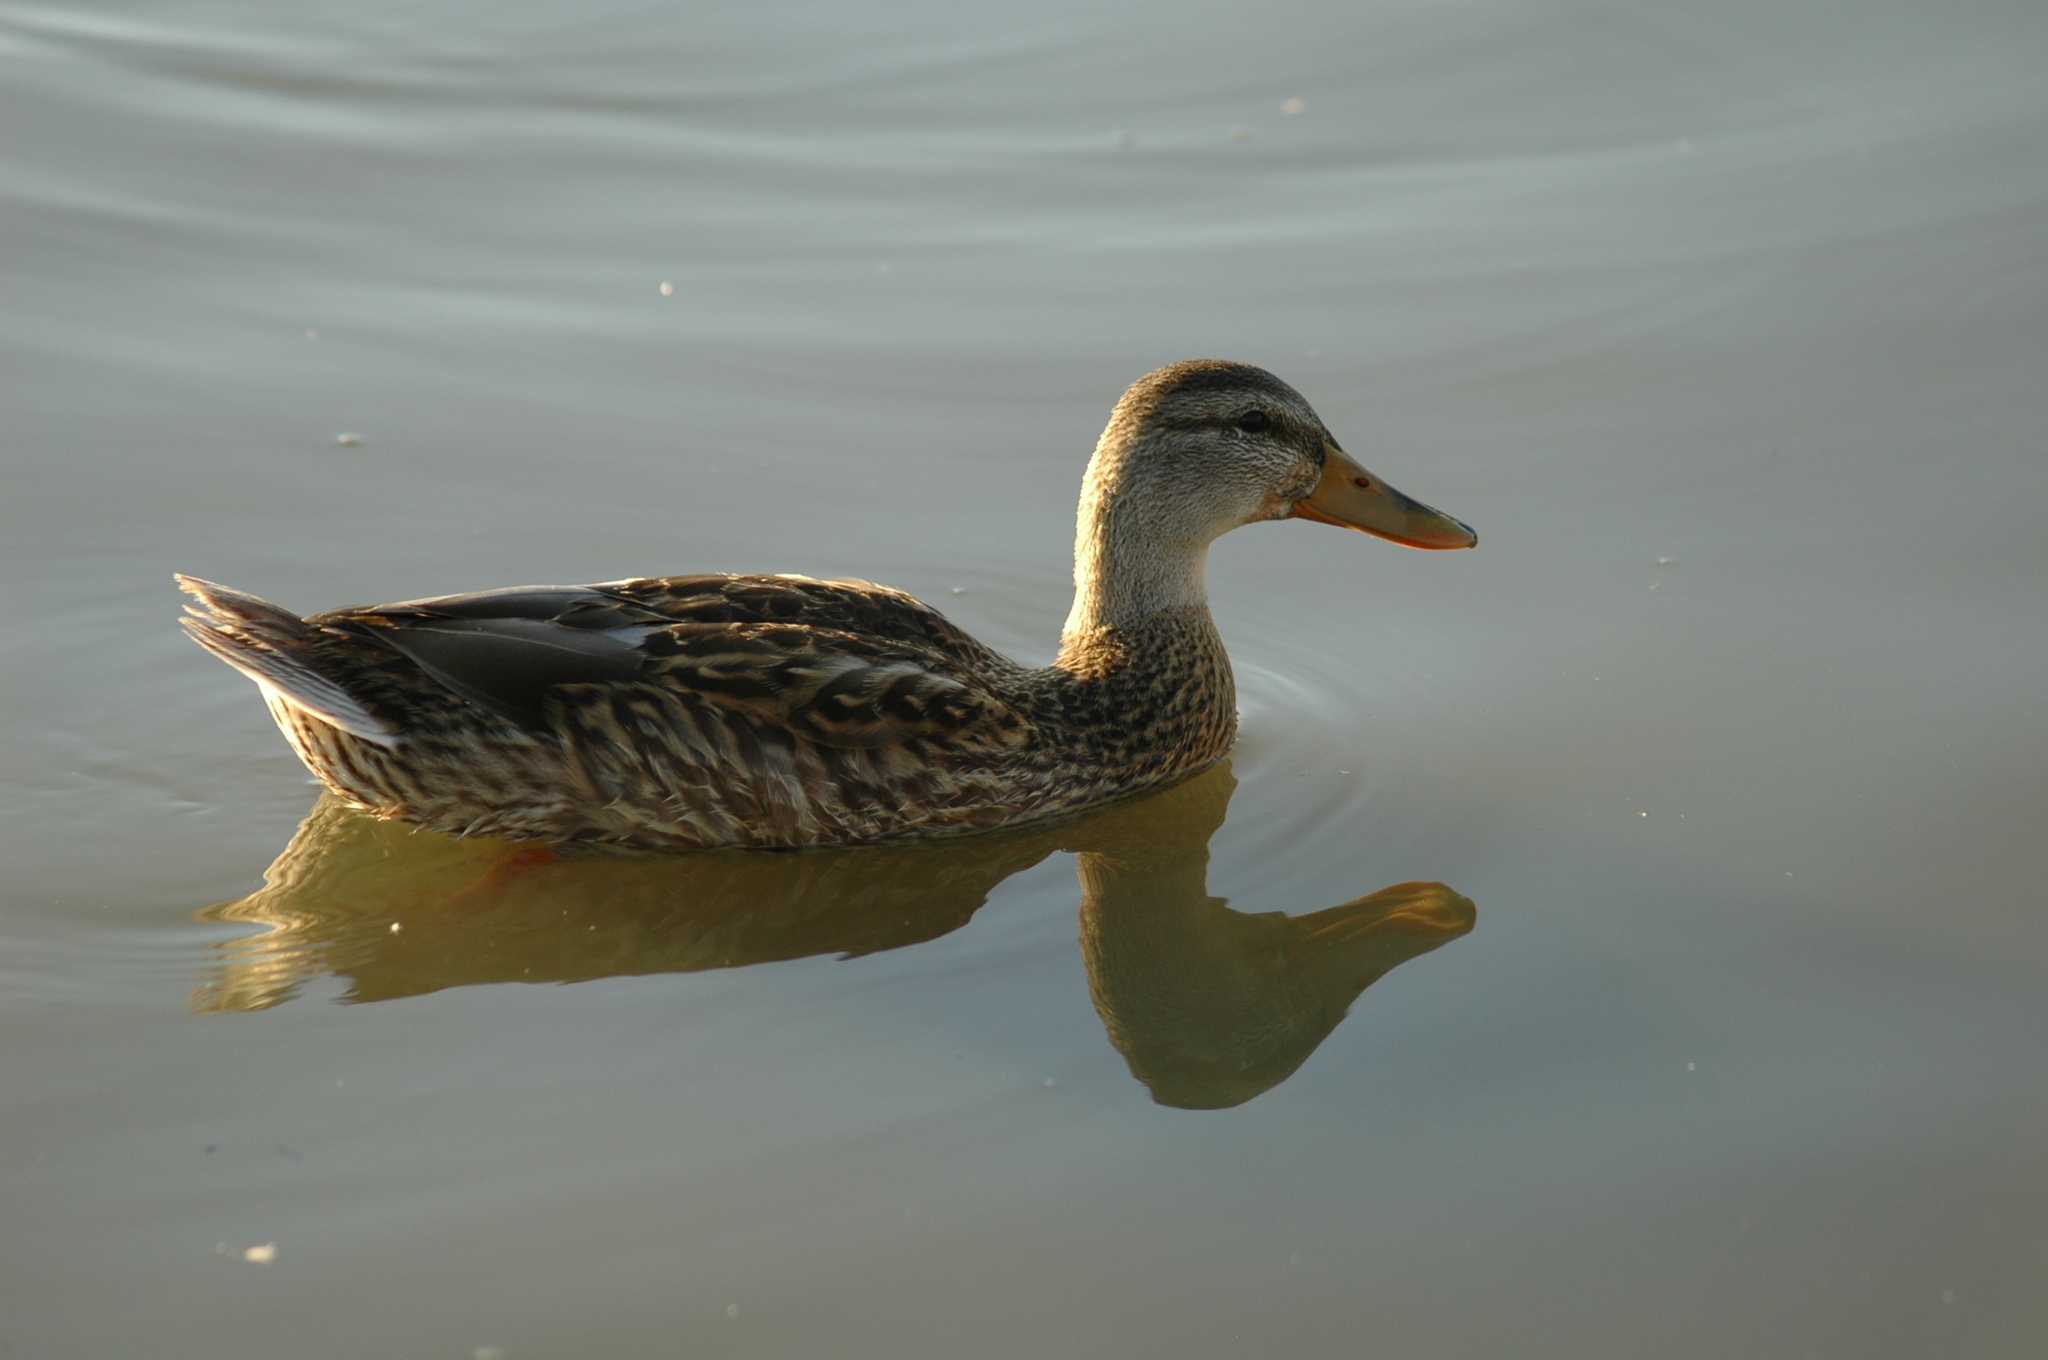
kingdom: Animalia
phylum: Chordata
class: Aves
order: Anseriformes
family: Anatidae
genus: Anas
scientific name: Anas platyrhynchos
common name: Mallard
